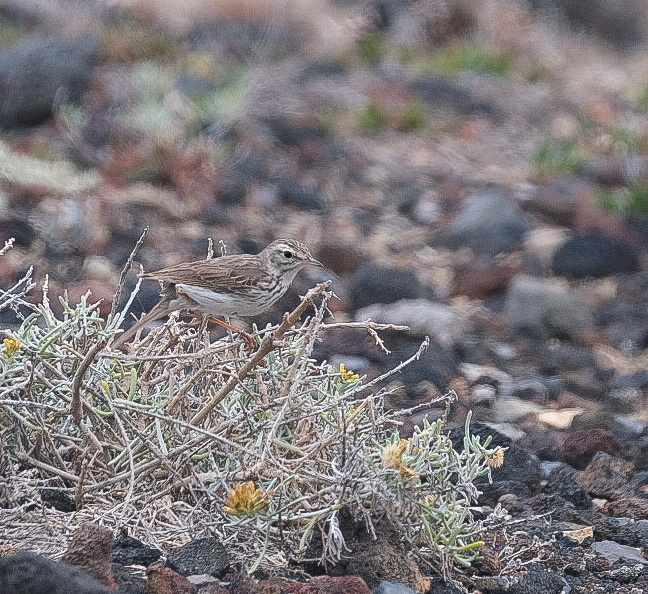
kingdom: Animalia
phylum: Chordata
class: Aves
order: Passeriformes
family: Motacillidae
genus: Anthus
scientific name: Anthus berthelotii
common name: Berthelot's pipit
